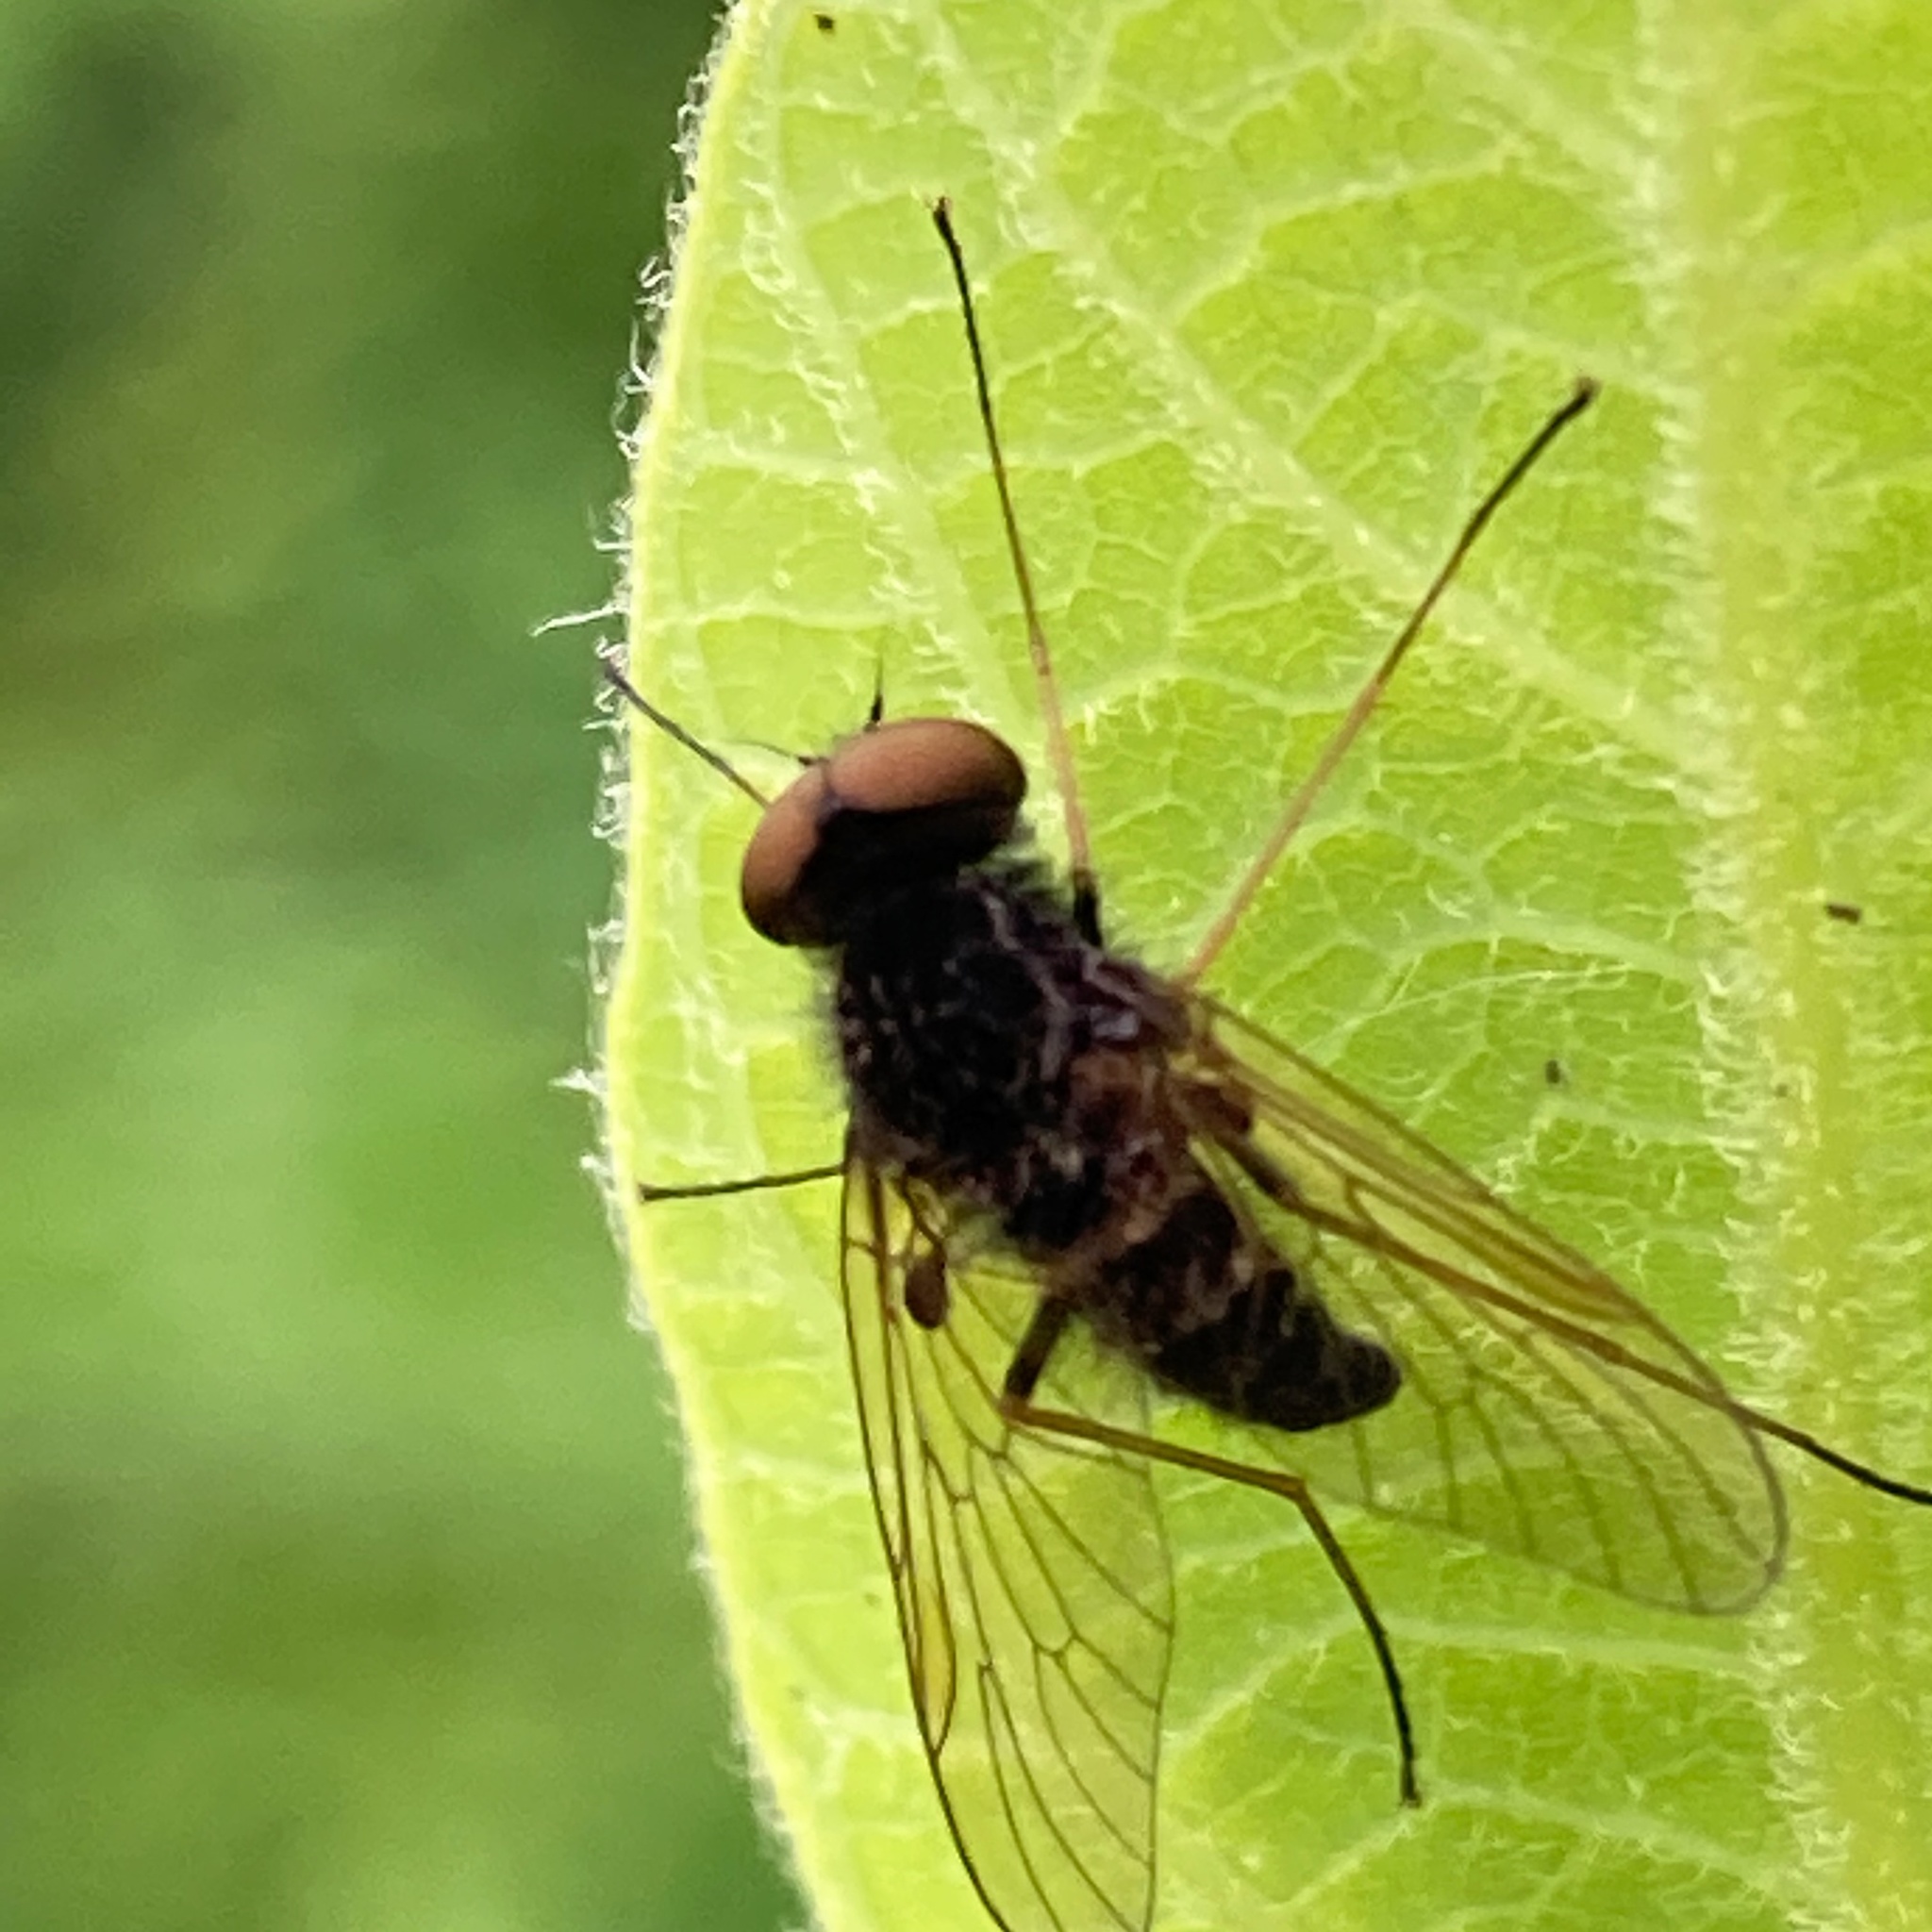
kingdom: Animalia
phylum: Arthropoda
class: Insecta
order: Diptera
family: Rhagionidae
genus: Chrysopilus
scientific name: Chrysopilus proximus
